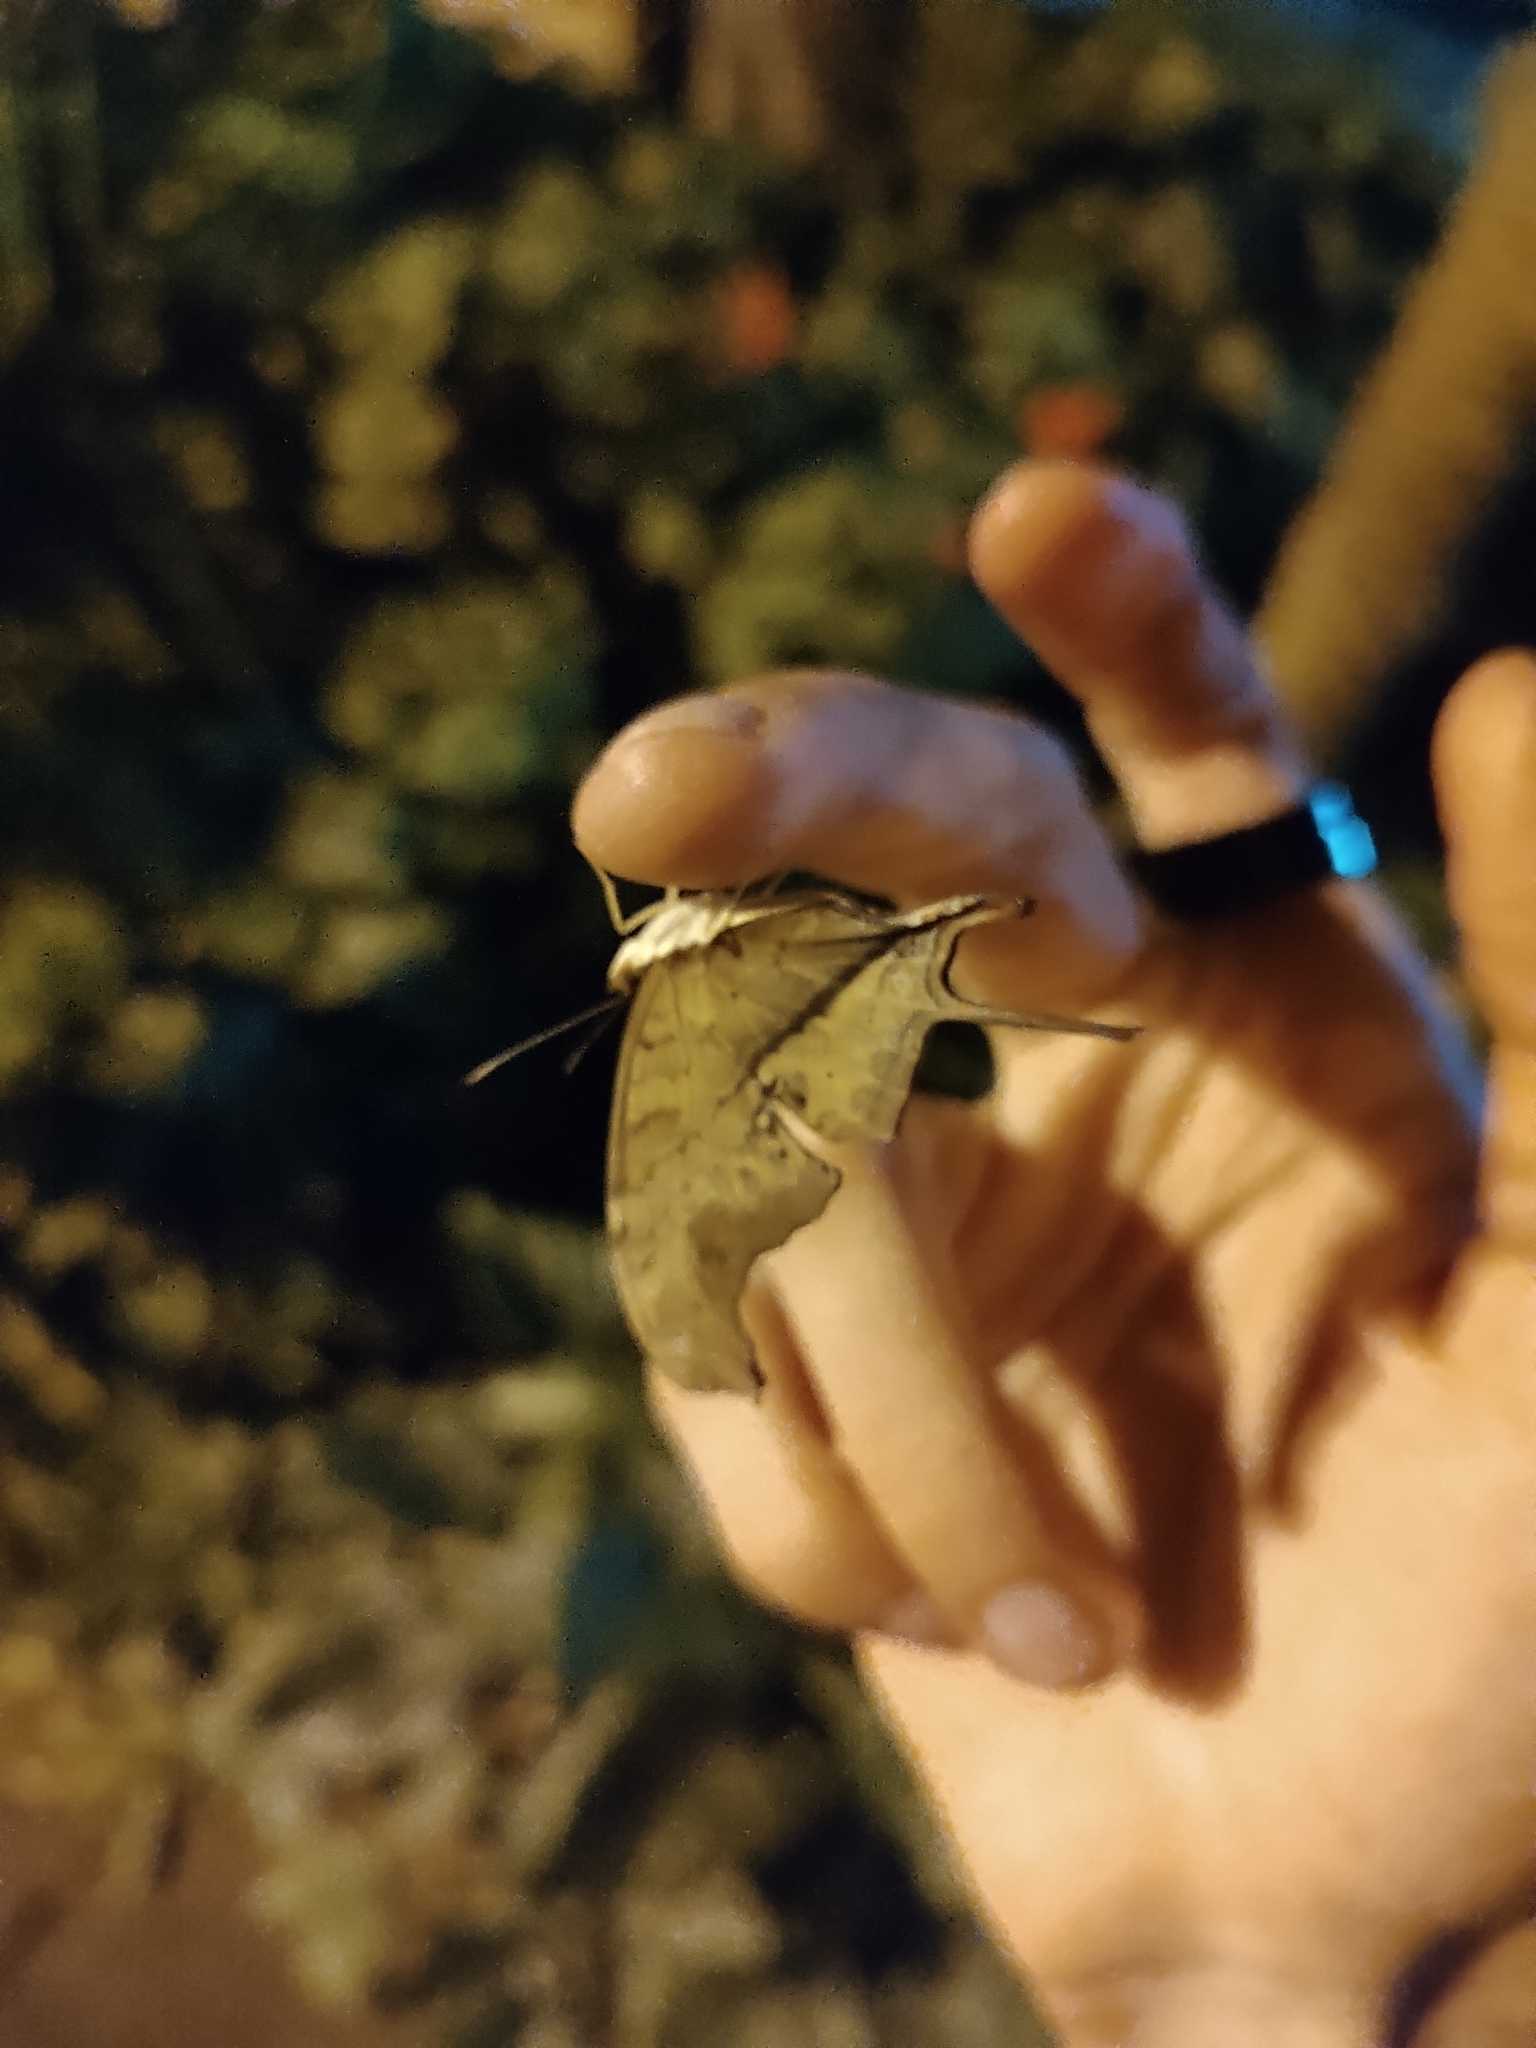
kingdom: Animalia
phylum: Arthropoda
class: Insecta
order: Lepidoptera
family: Nymphalidae
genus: Marpesia
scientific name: Marpesia petreus
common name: Red dagger wing
